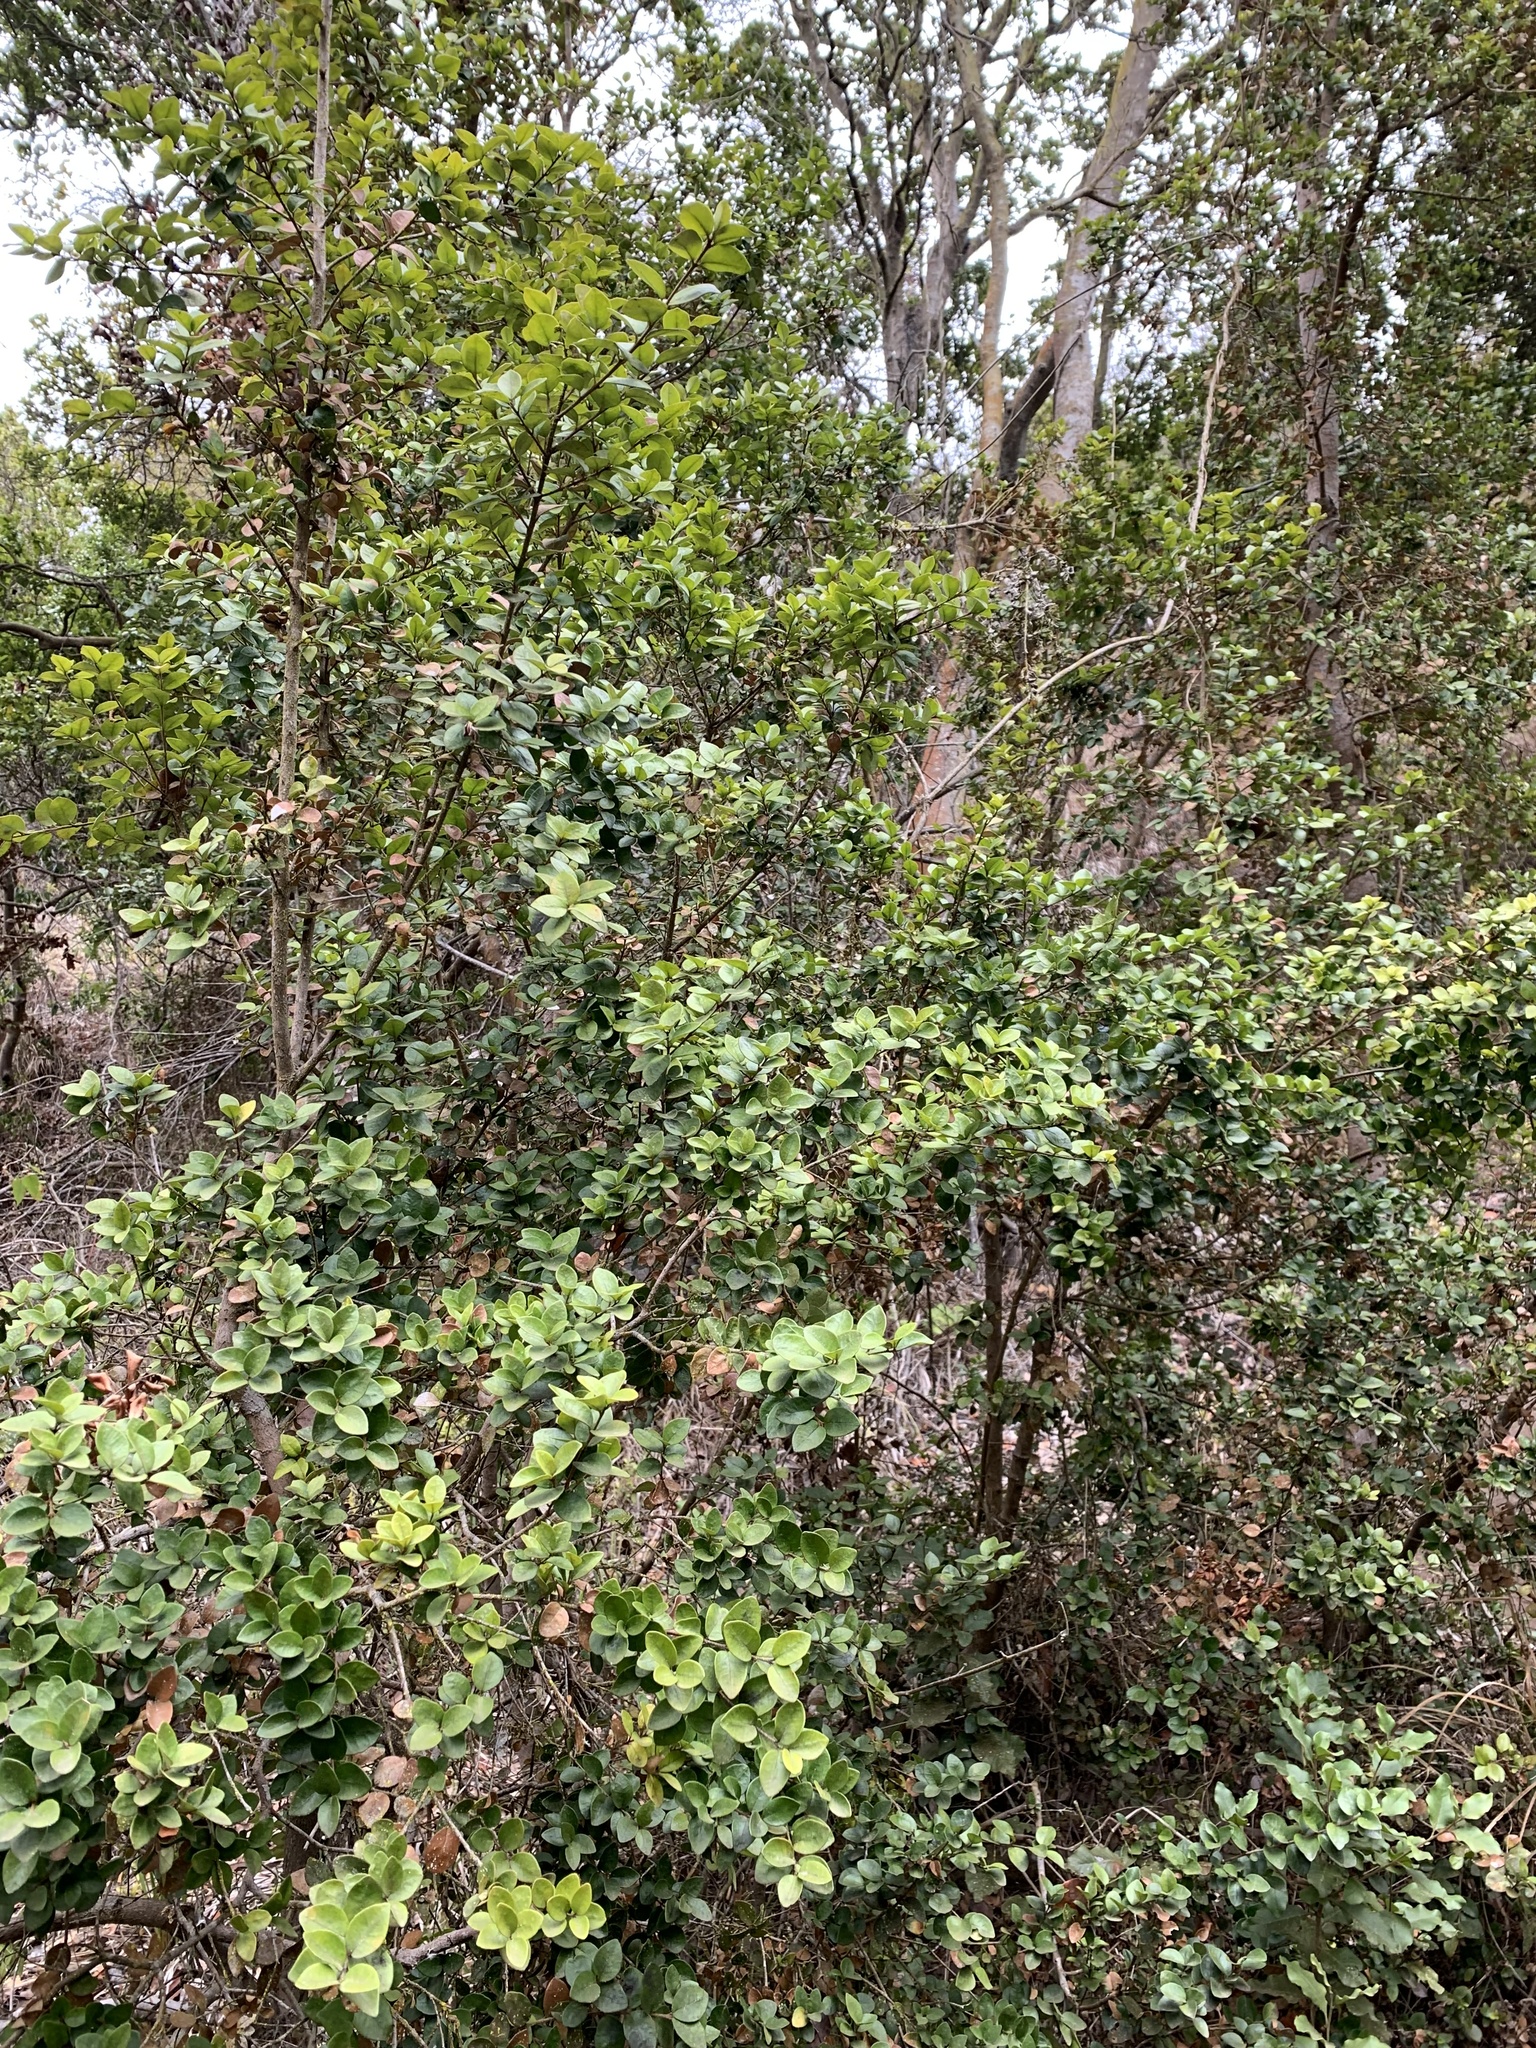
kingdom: Plantae
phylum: Tracheophyta
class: Magnoliopsida
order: Myrtales
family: Myrtaceae
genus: Myrceugenia
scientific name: Myrceugenia obtusa
